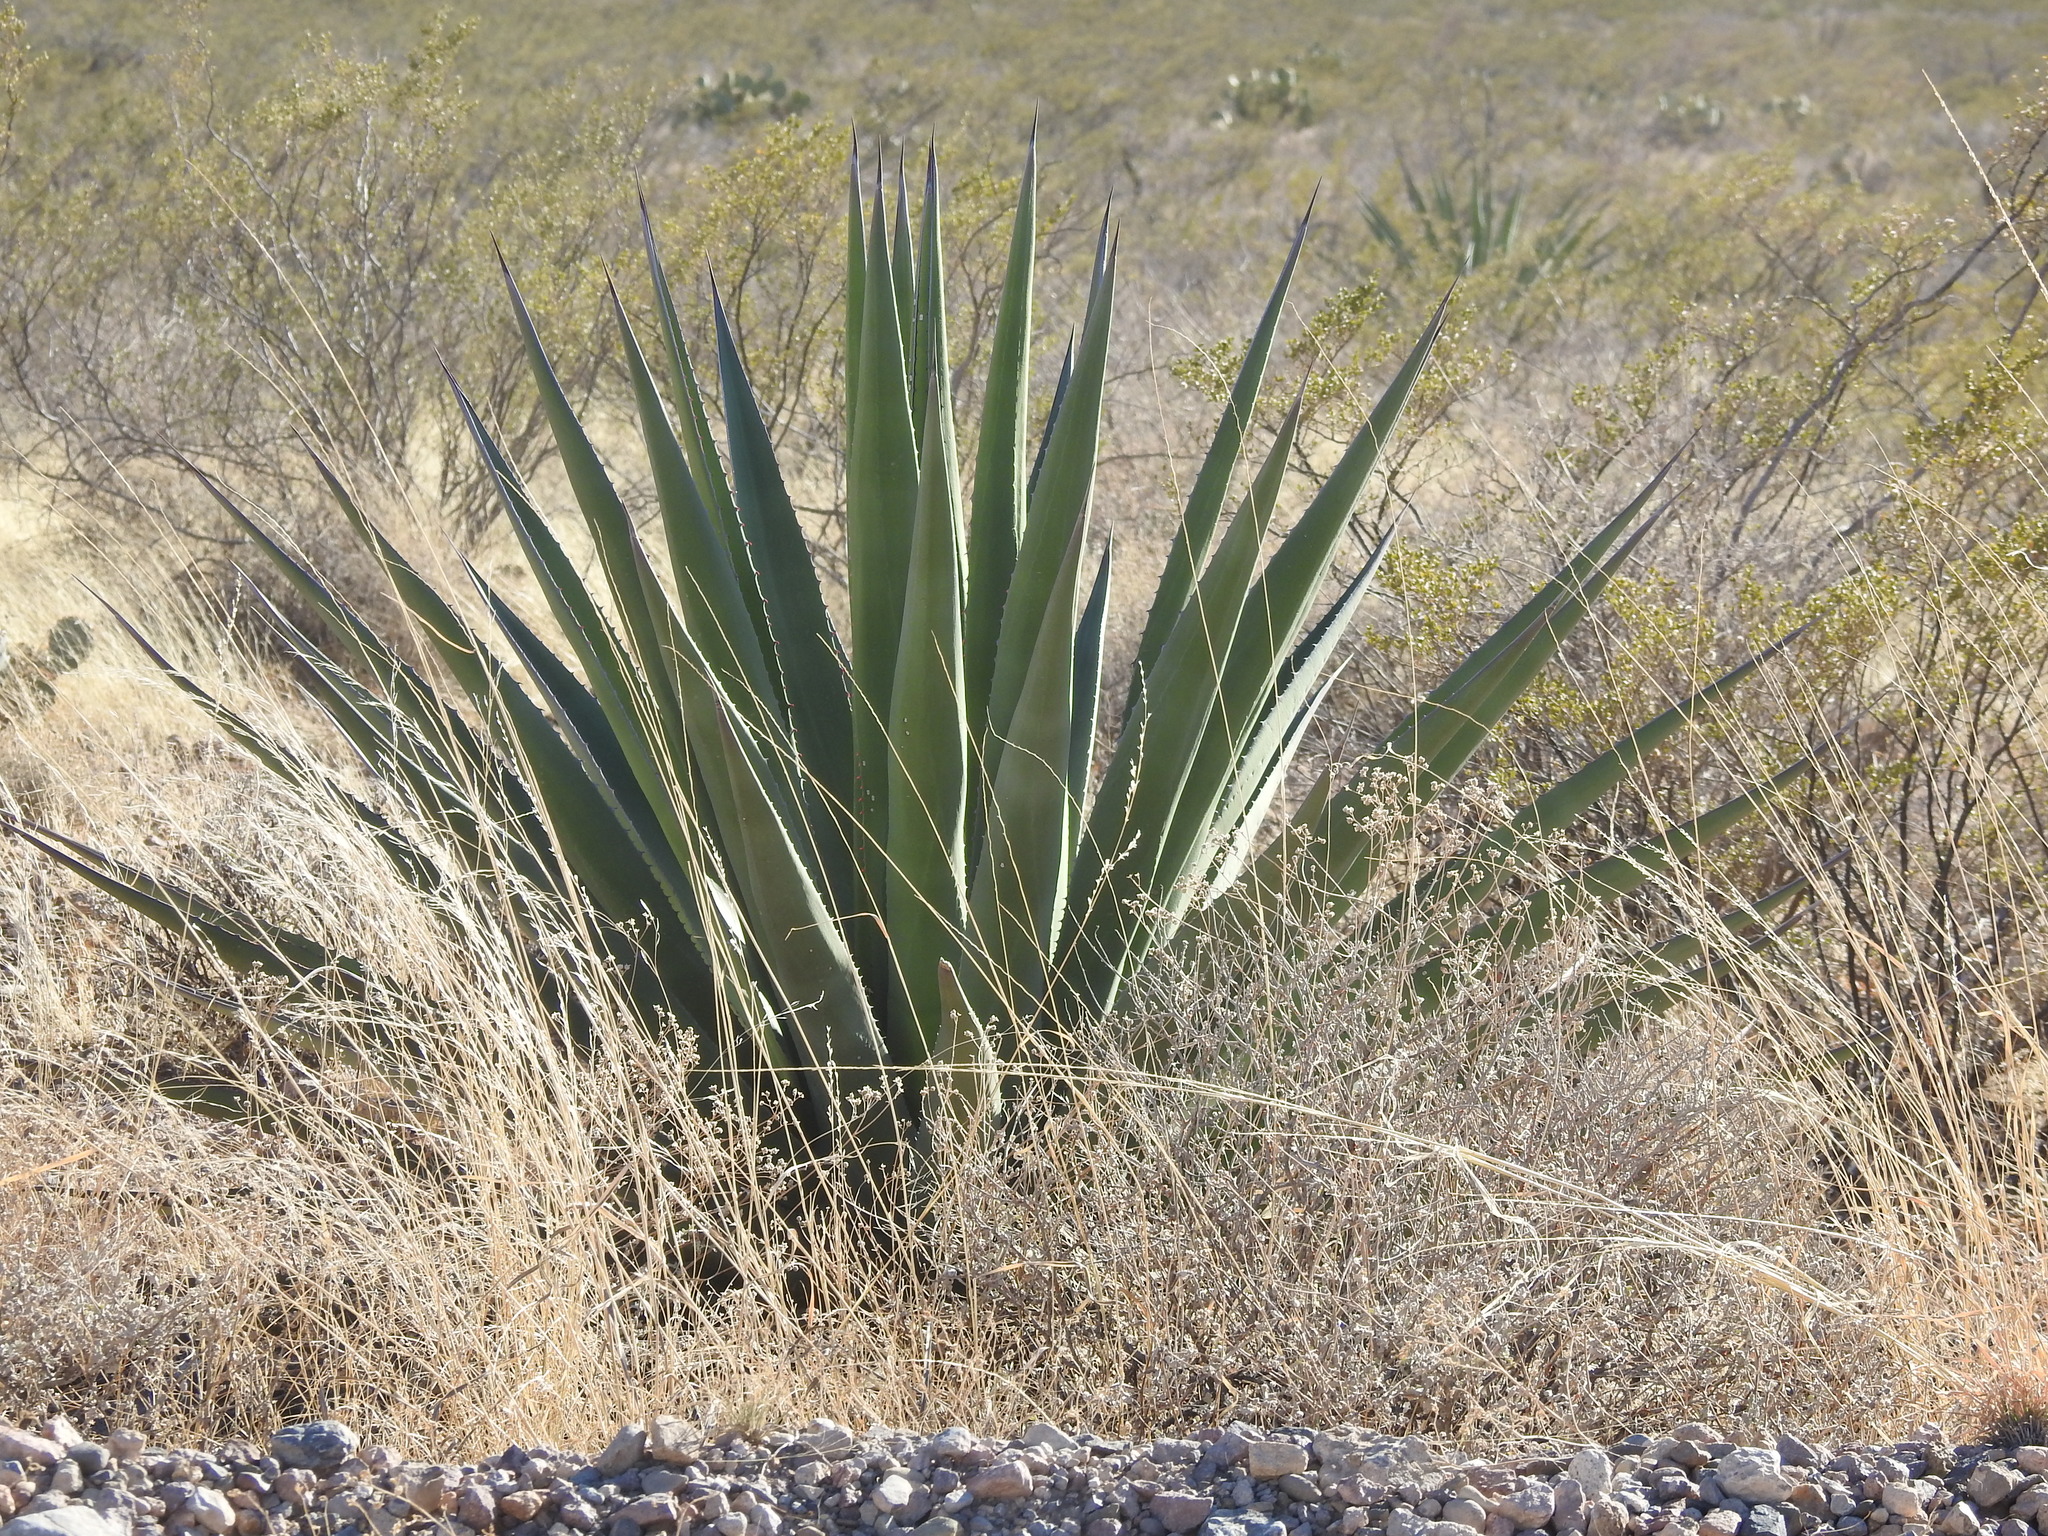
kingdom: Plantae
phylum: Tracheophyta
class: Liliopsida
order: Asparagales
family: Asparagaceae
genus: Agave
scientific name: Agave palmeri
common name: Palmer agave
